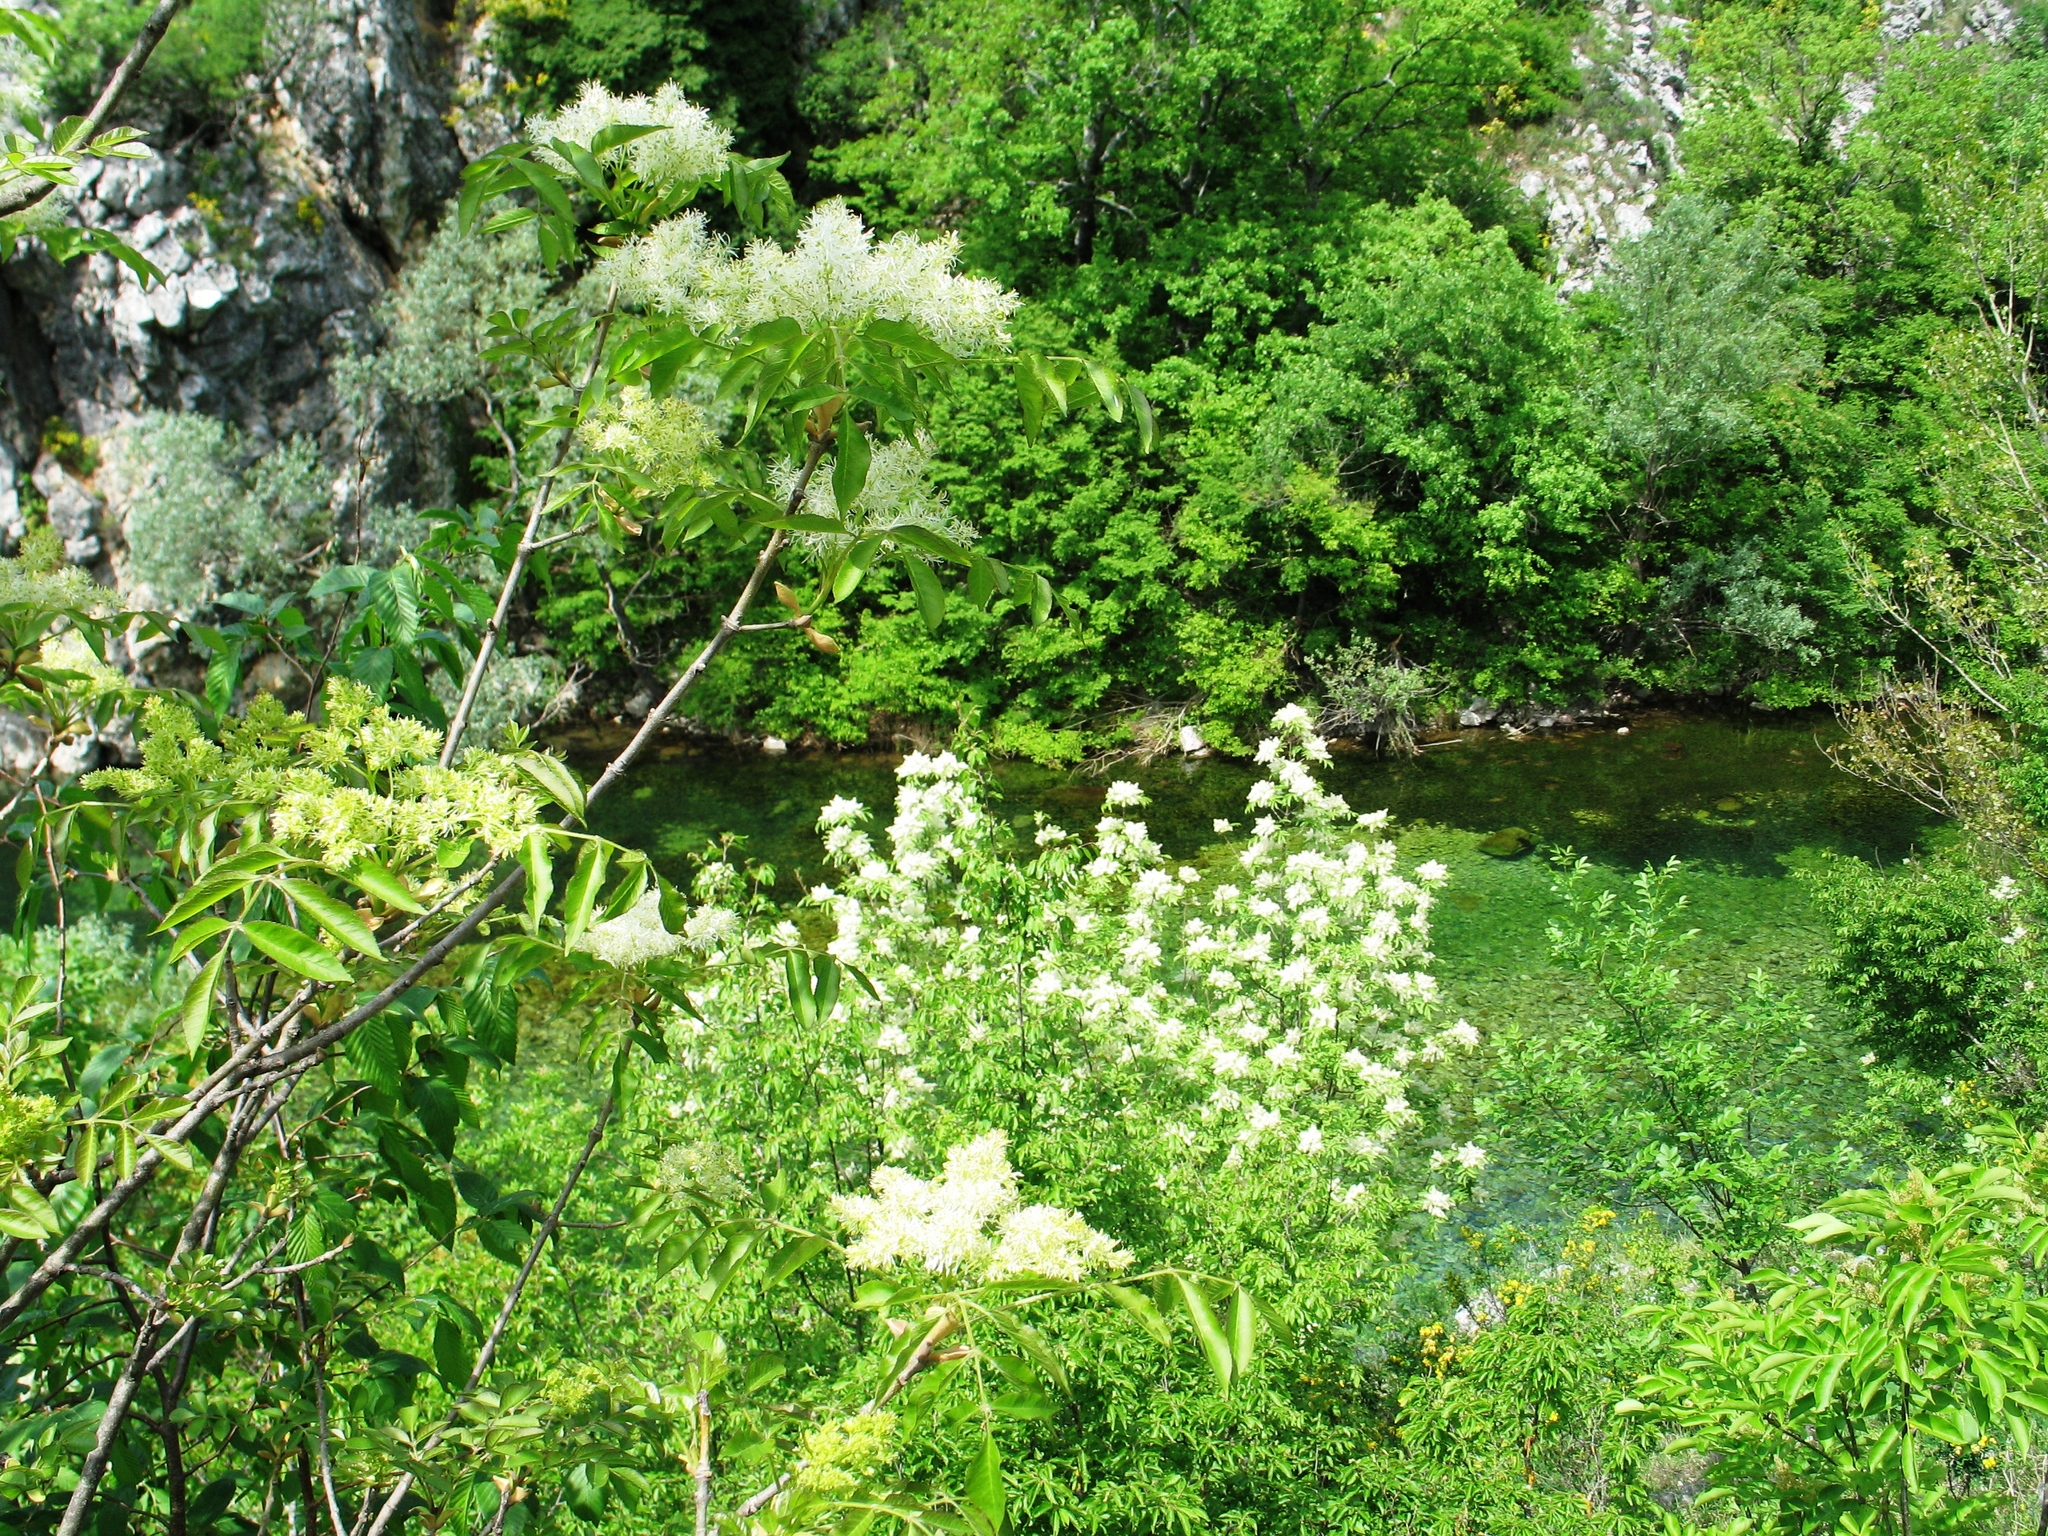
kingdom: Plantae
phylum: Tracheophyta
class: Magnoliopsida
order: Lamiales
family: Oleaceae
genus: Fraxinus
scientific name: Fraxinus ornus
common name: Manna ash
